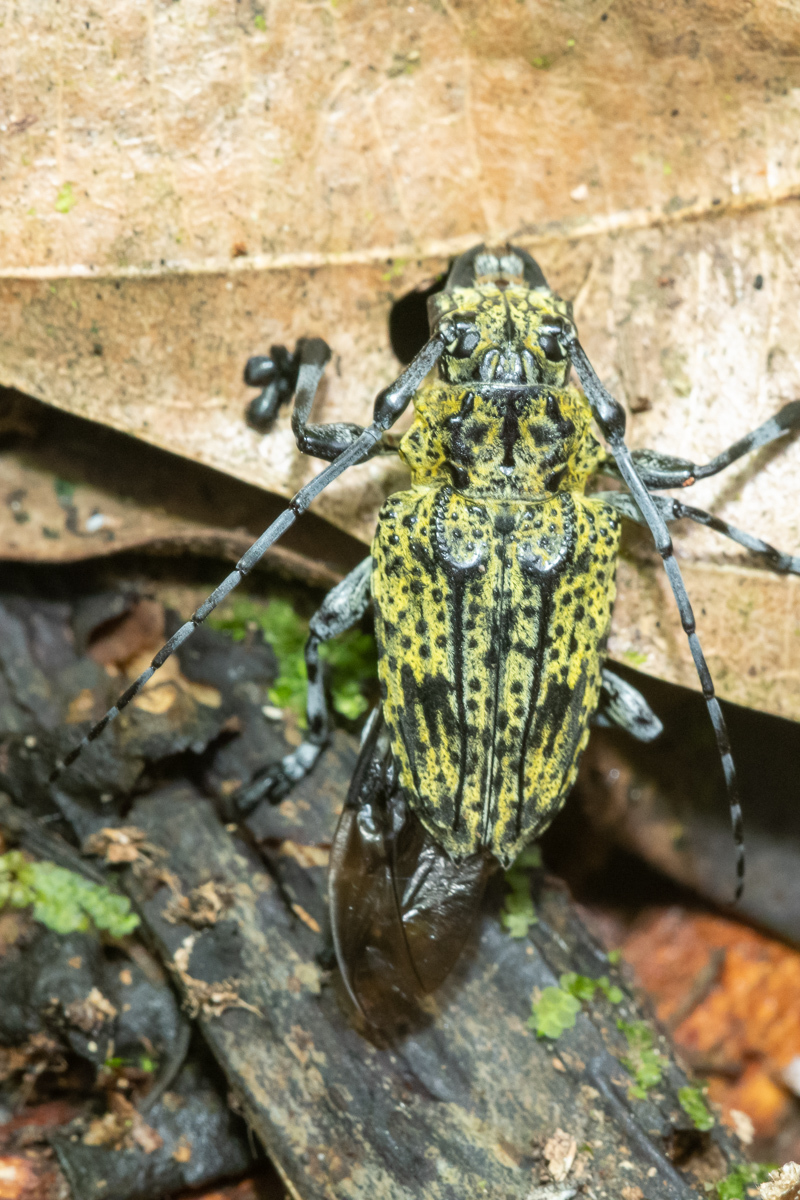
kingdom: Animalia
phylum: Arthropoda
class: Insecta
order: Coleoptera
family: Cerambycidae
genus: Steirastoma
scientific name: Steirastoma breve
